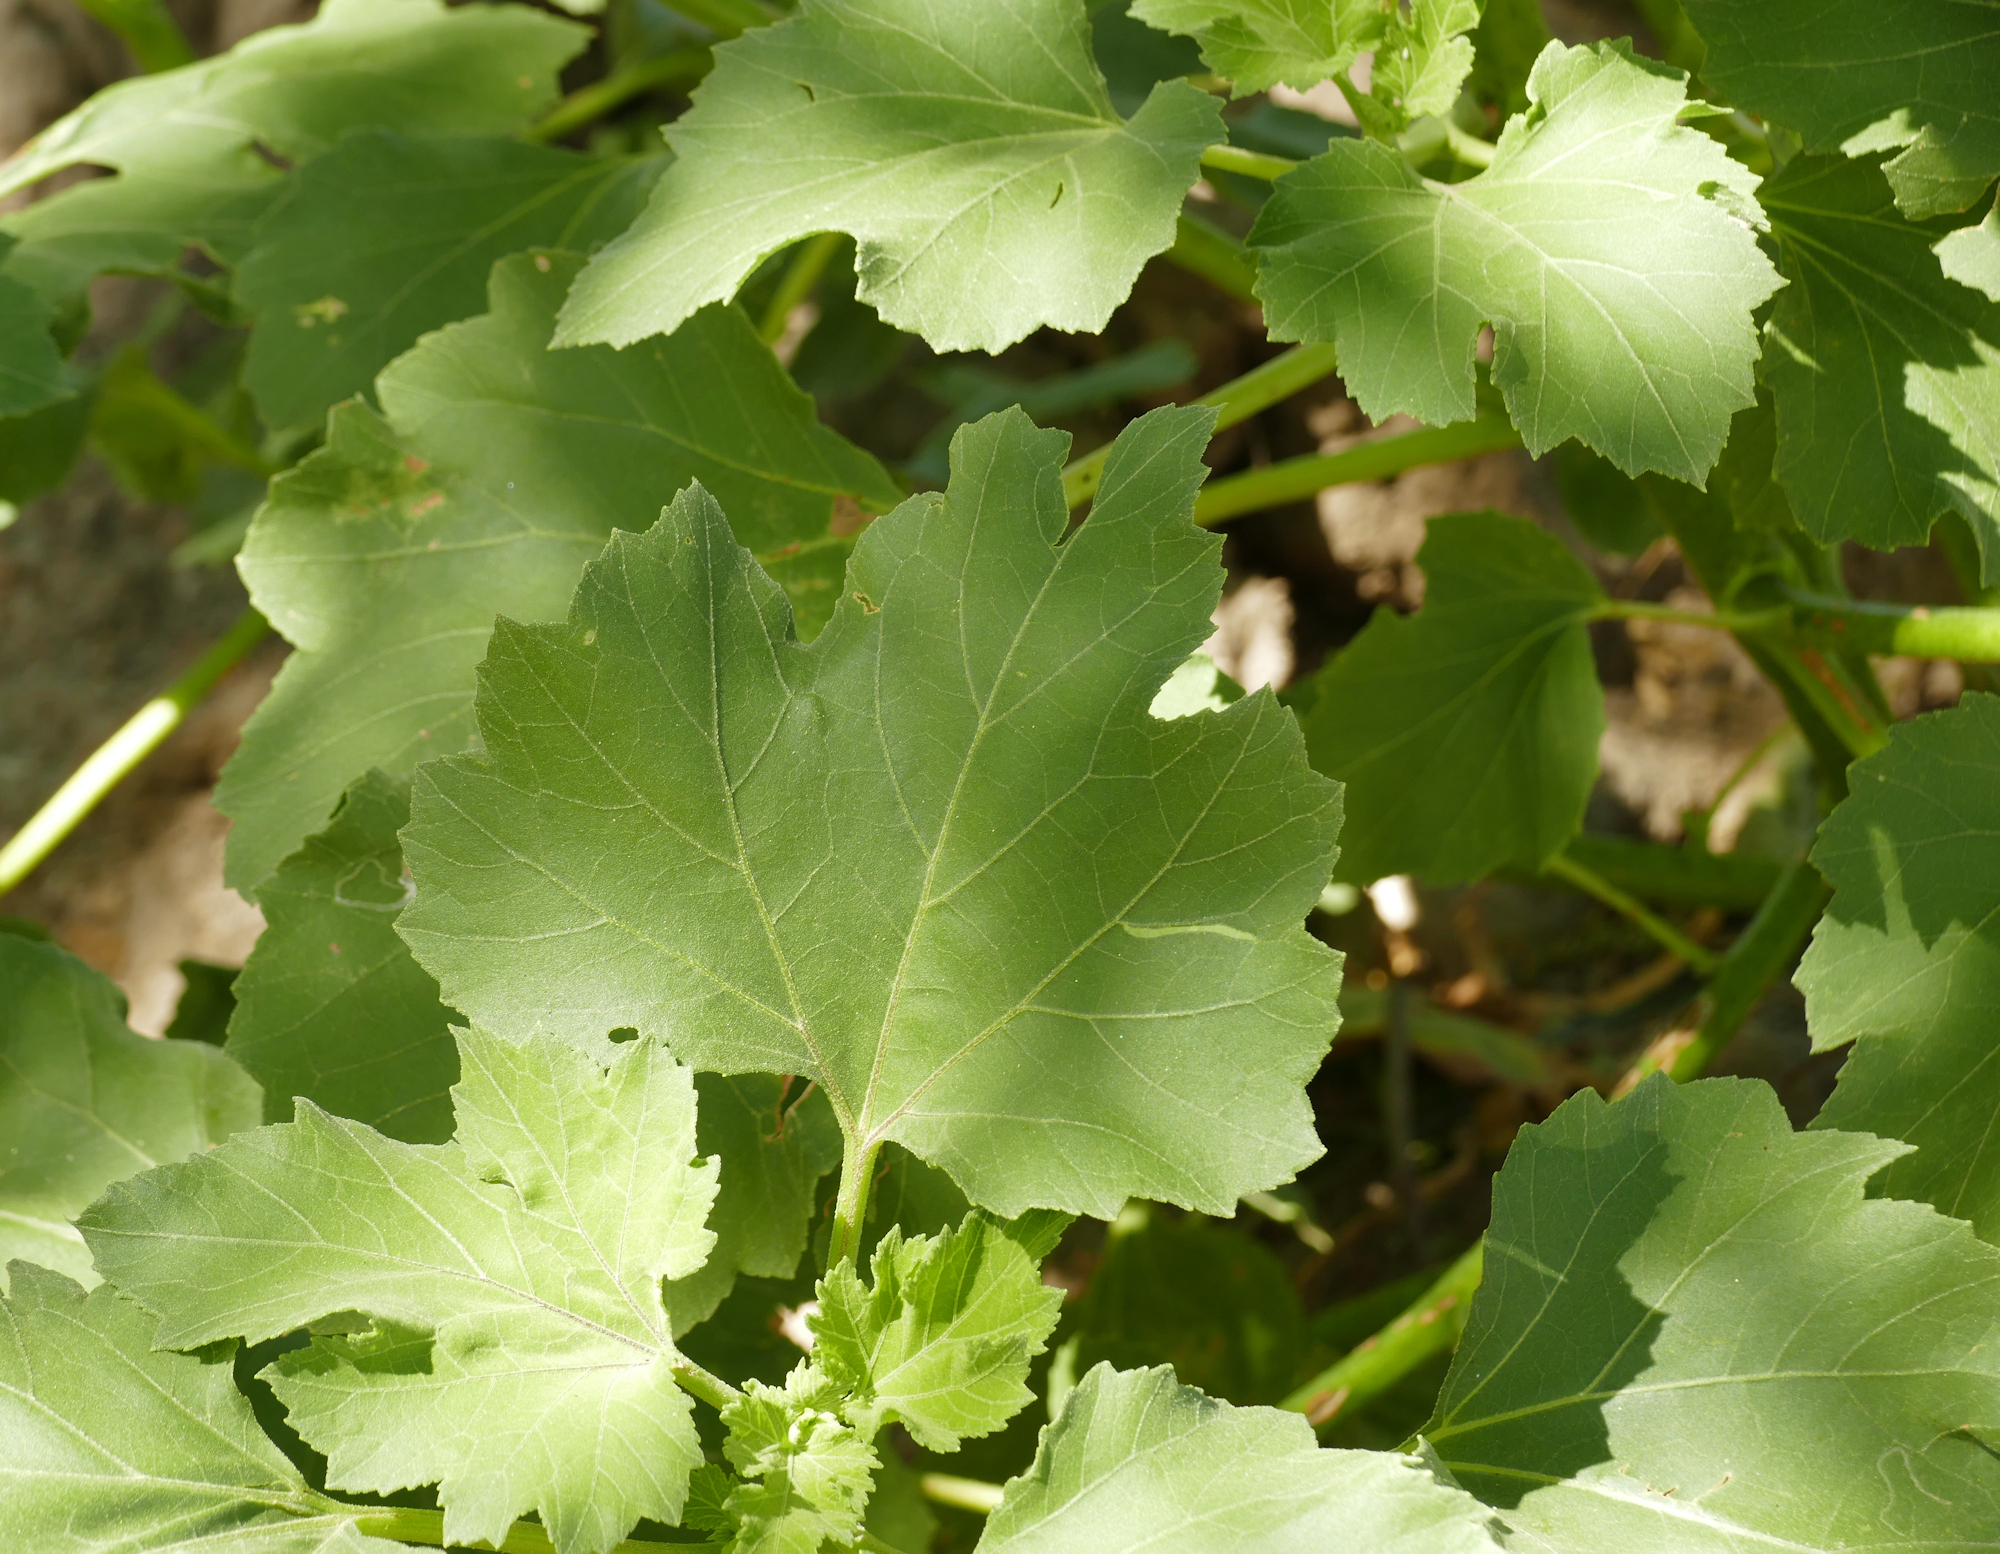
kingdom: Plantae
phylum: Tracheophyta
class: Magnoliopsida
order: Asterales
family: Asteraceae
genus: Xanthium
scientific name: Xanthium strumarium
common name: Rough cocklebur
